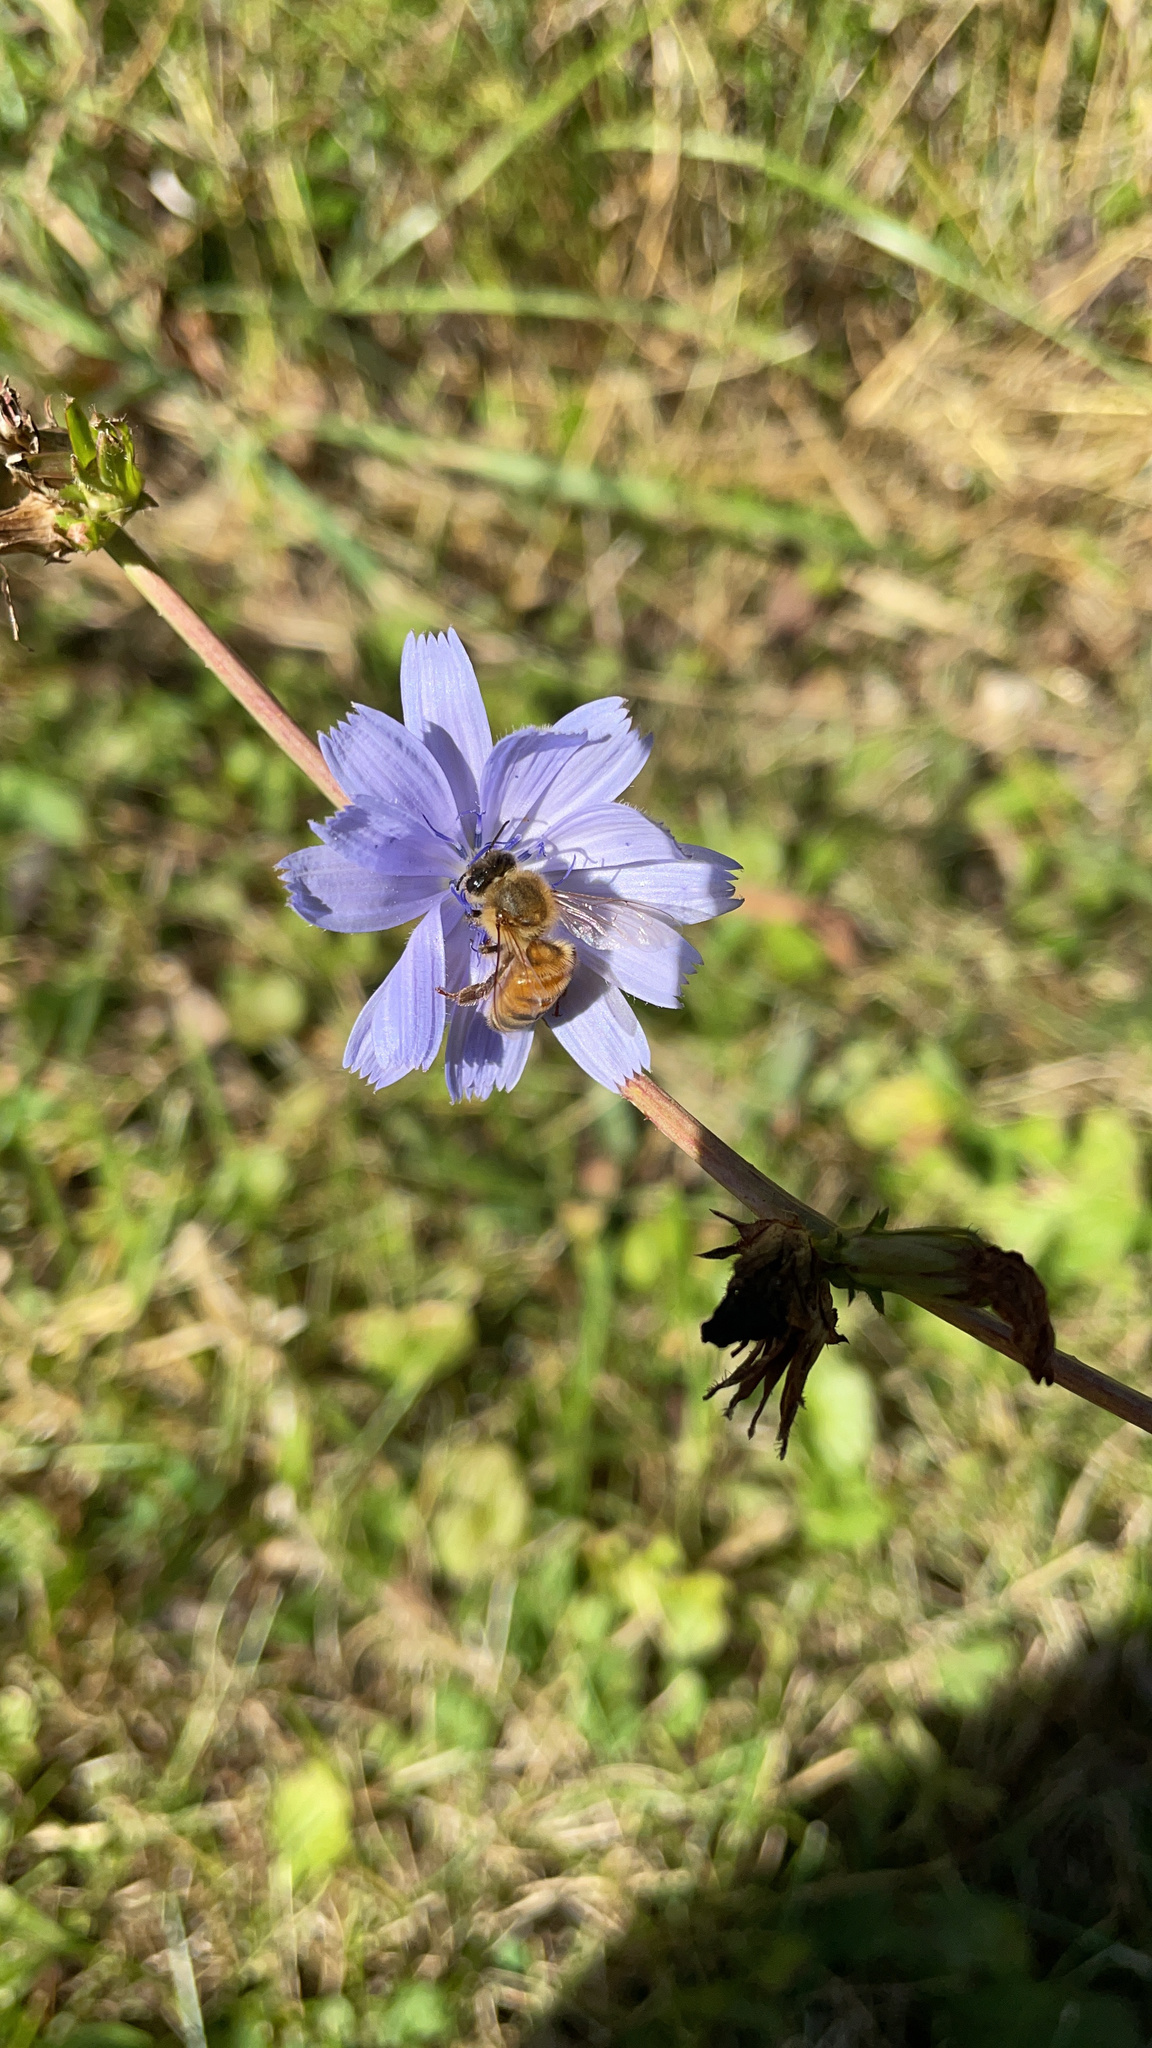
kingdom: Animalia
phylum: Arthropoda
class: Insecta
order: Hymenoptera
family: Apidae
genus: Apis
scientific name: Apis mellifera
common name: Honey bee
